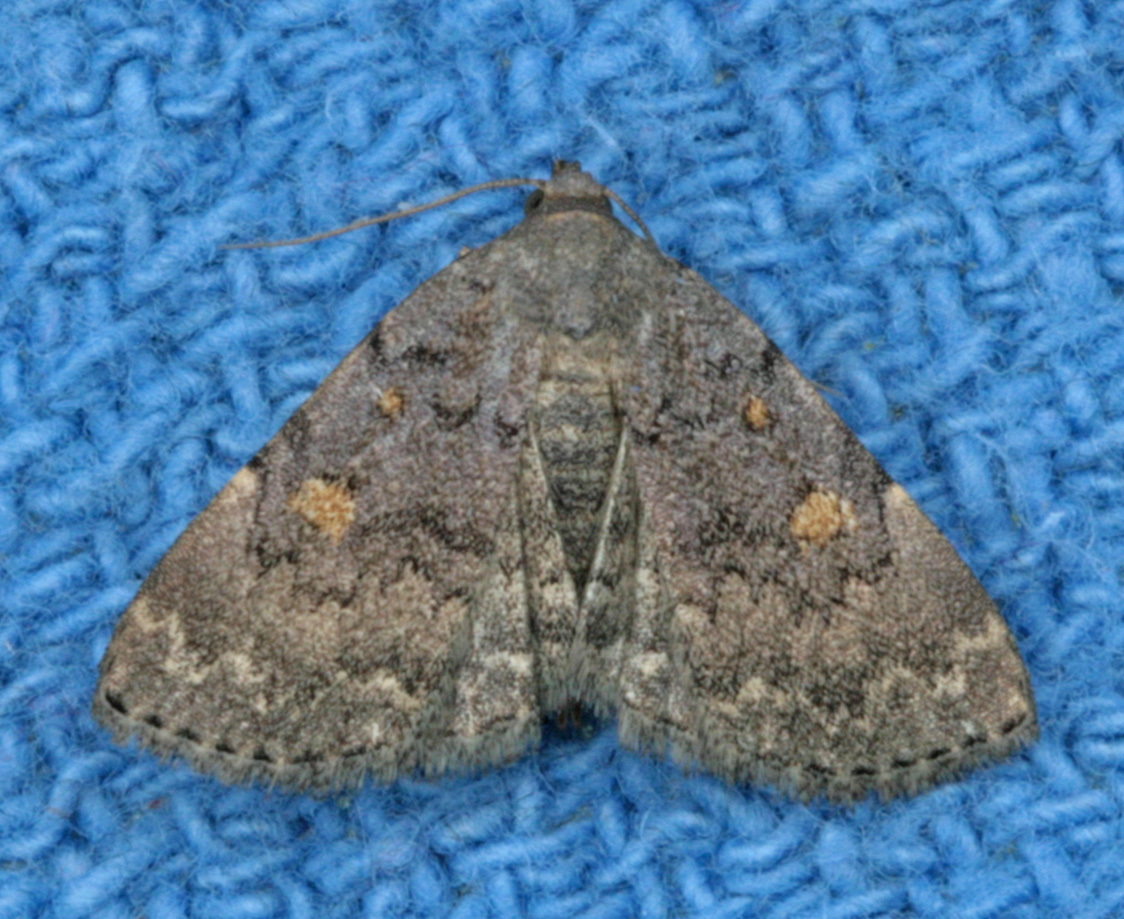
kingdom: Animalia
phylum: Arthropoda
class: Insecta
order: Lepidoptera
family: Erebidae
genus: Idia
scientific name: Idia aemula
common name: Common idia moth
